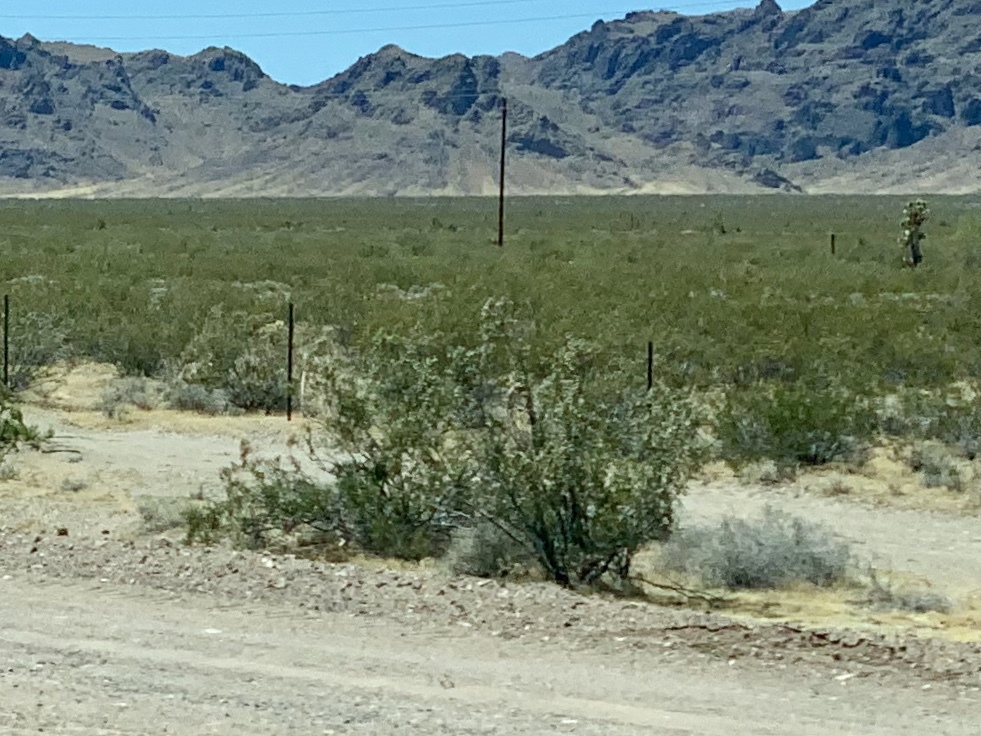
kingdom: Plantae
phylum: Tracheophyta
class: Magnoliopsida
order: Zygophyllales
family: Zygophyllaceae
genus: Larrea
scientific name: Larrea tridentata
